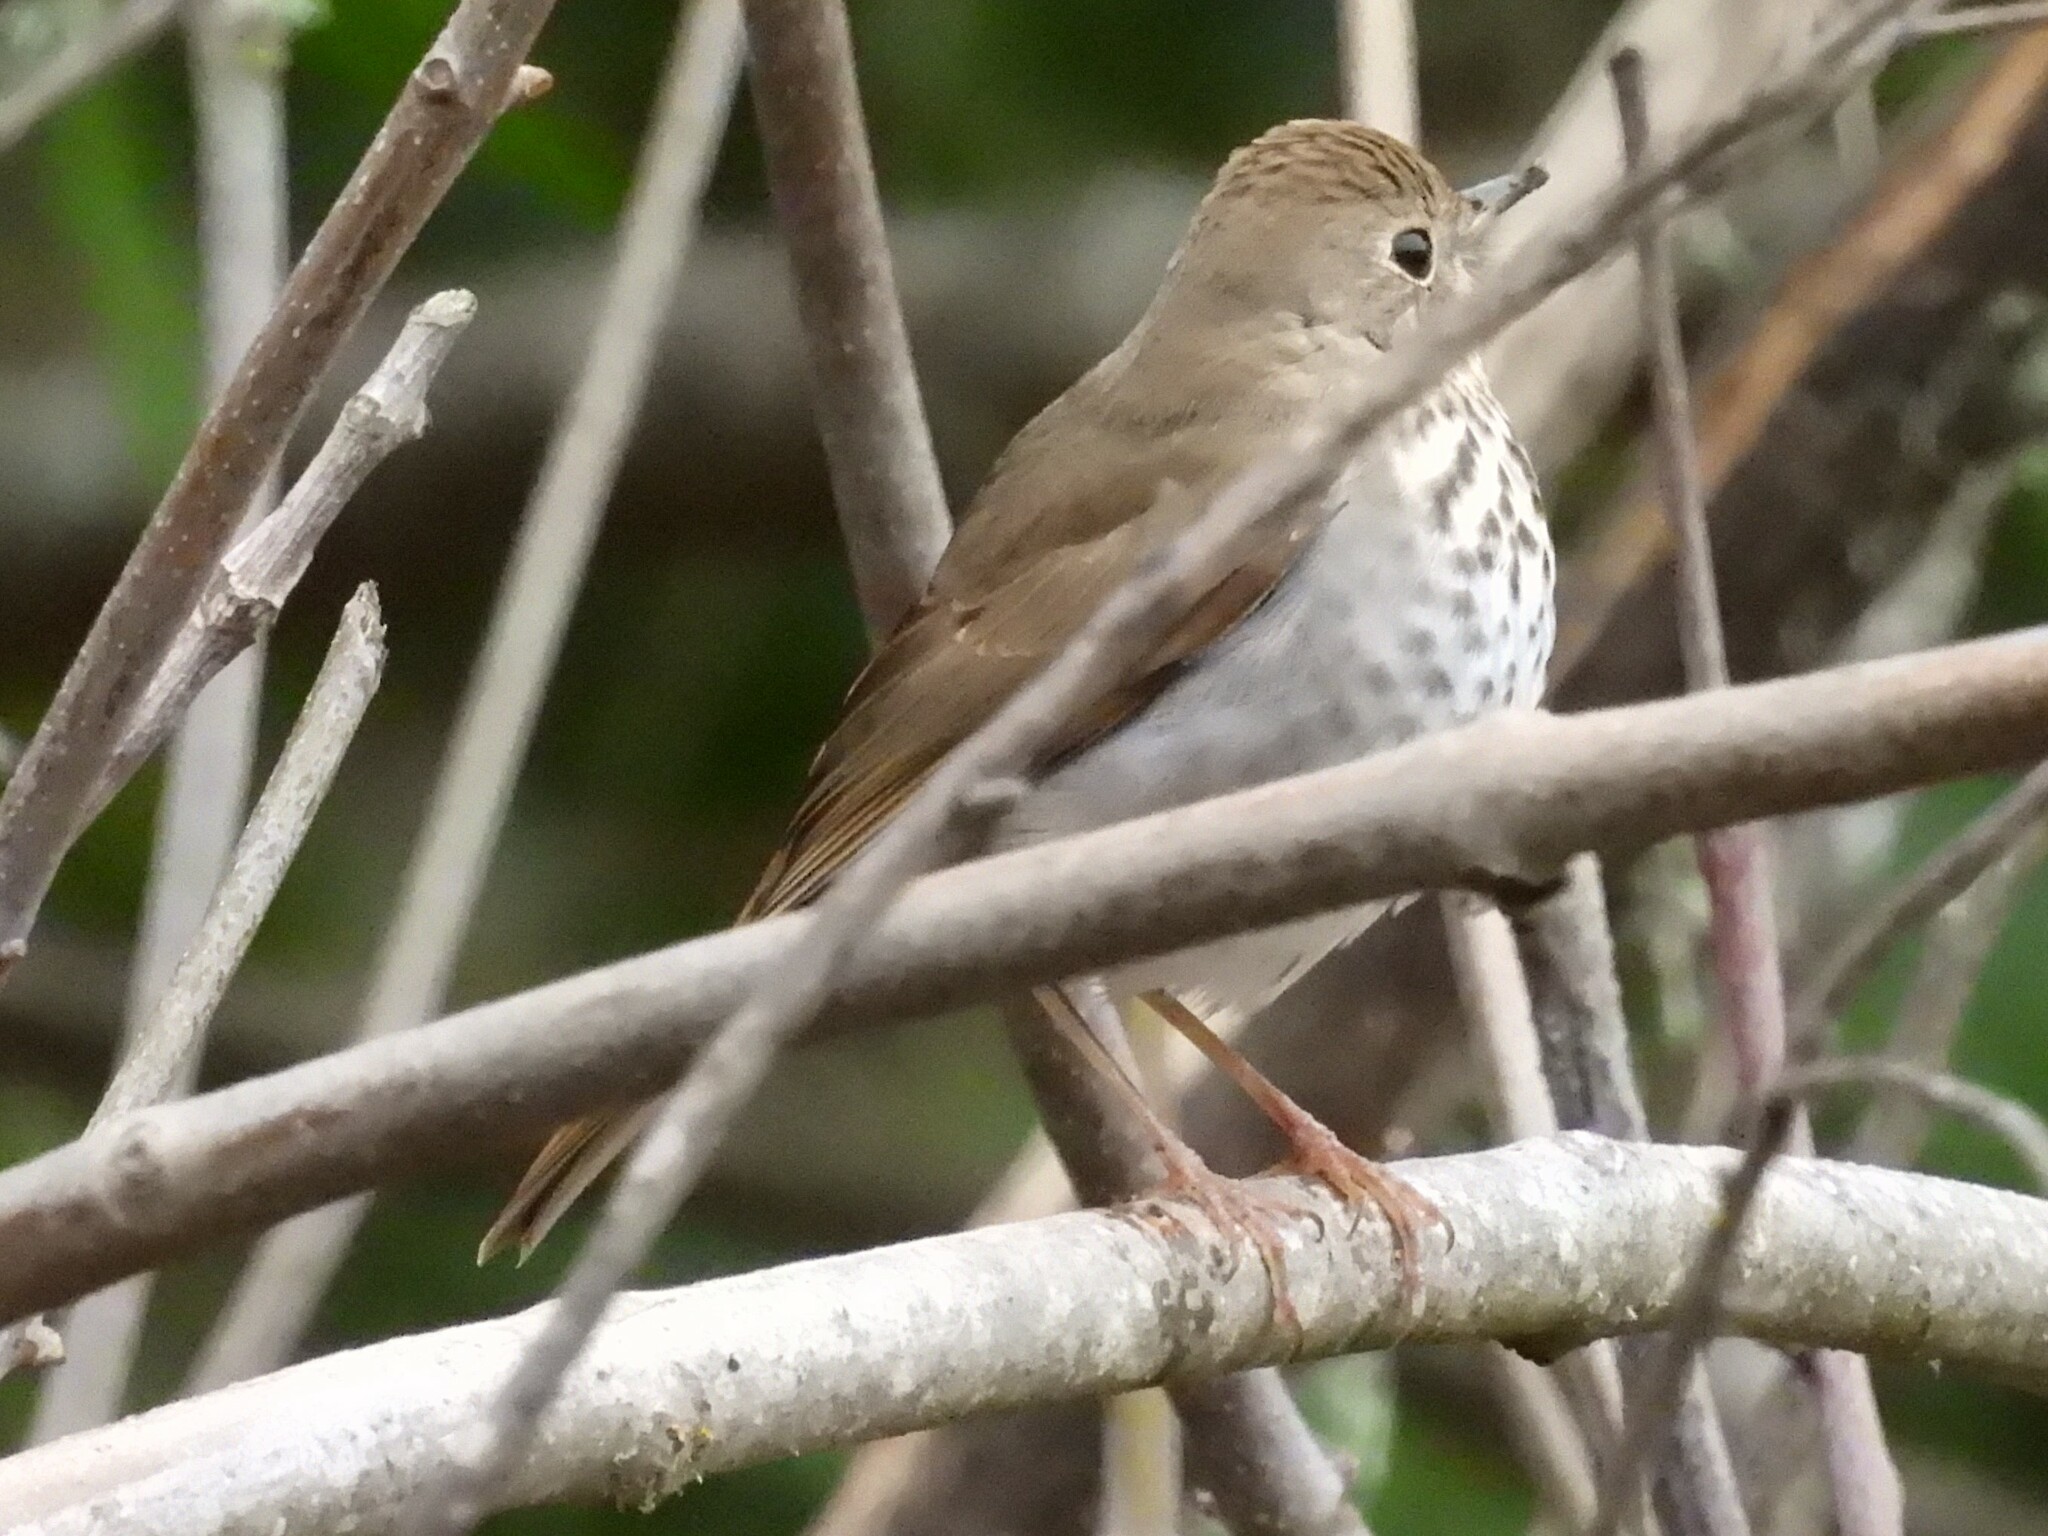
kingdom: Animalia
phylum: Chordata
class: Aves
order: Passeriformes
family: Turdidae
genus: Catharus
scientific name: Catharus guttatus
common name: Hermit thrush
